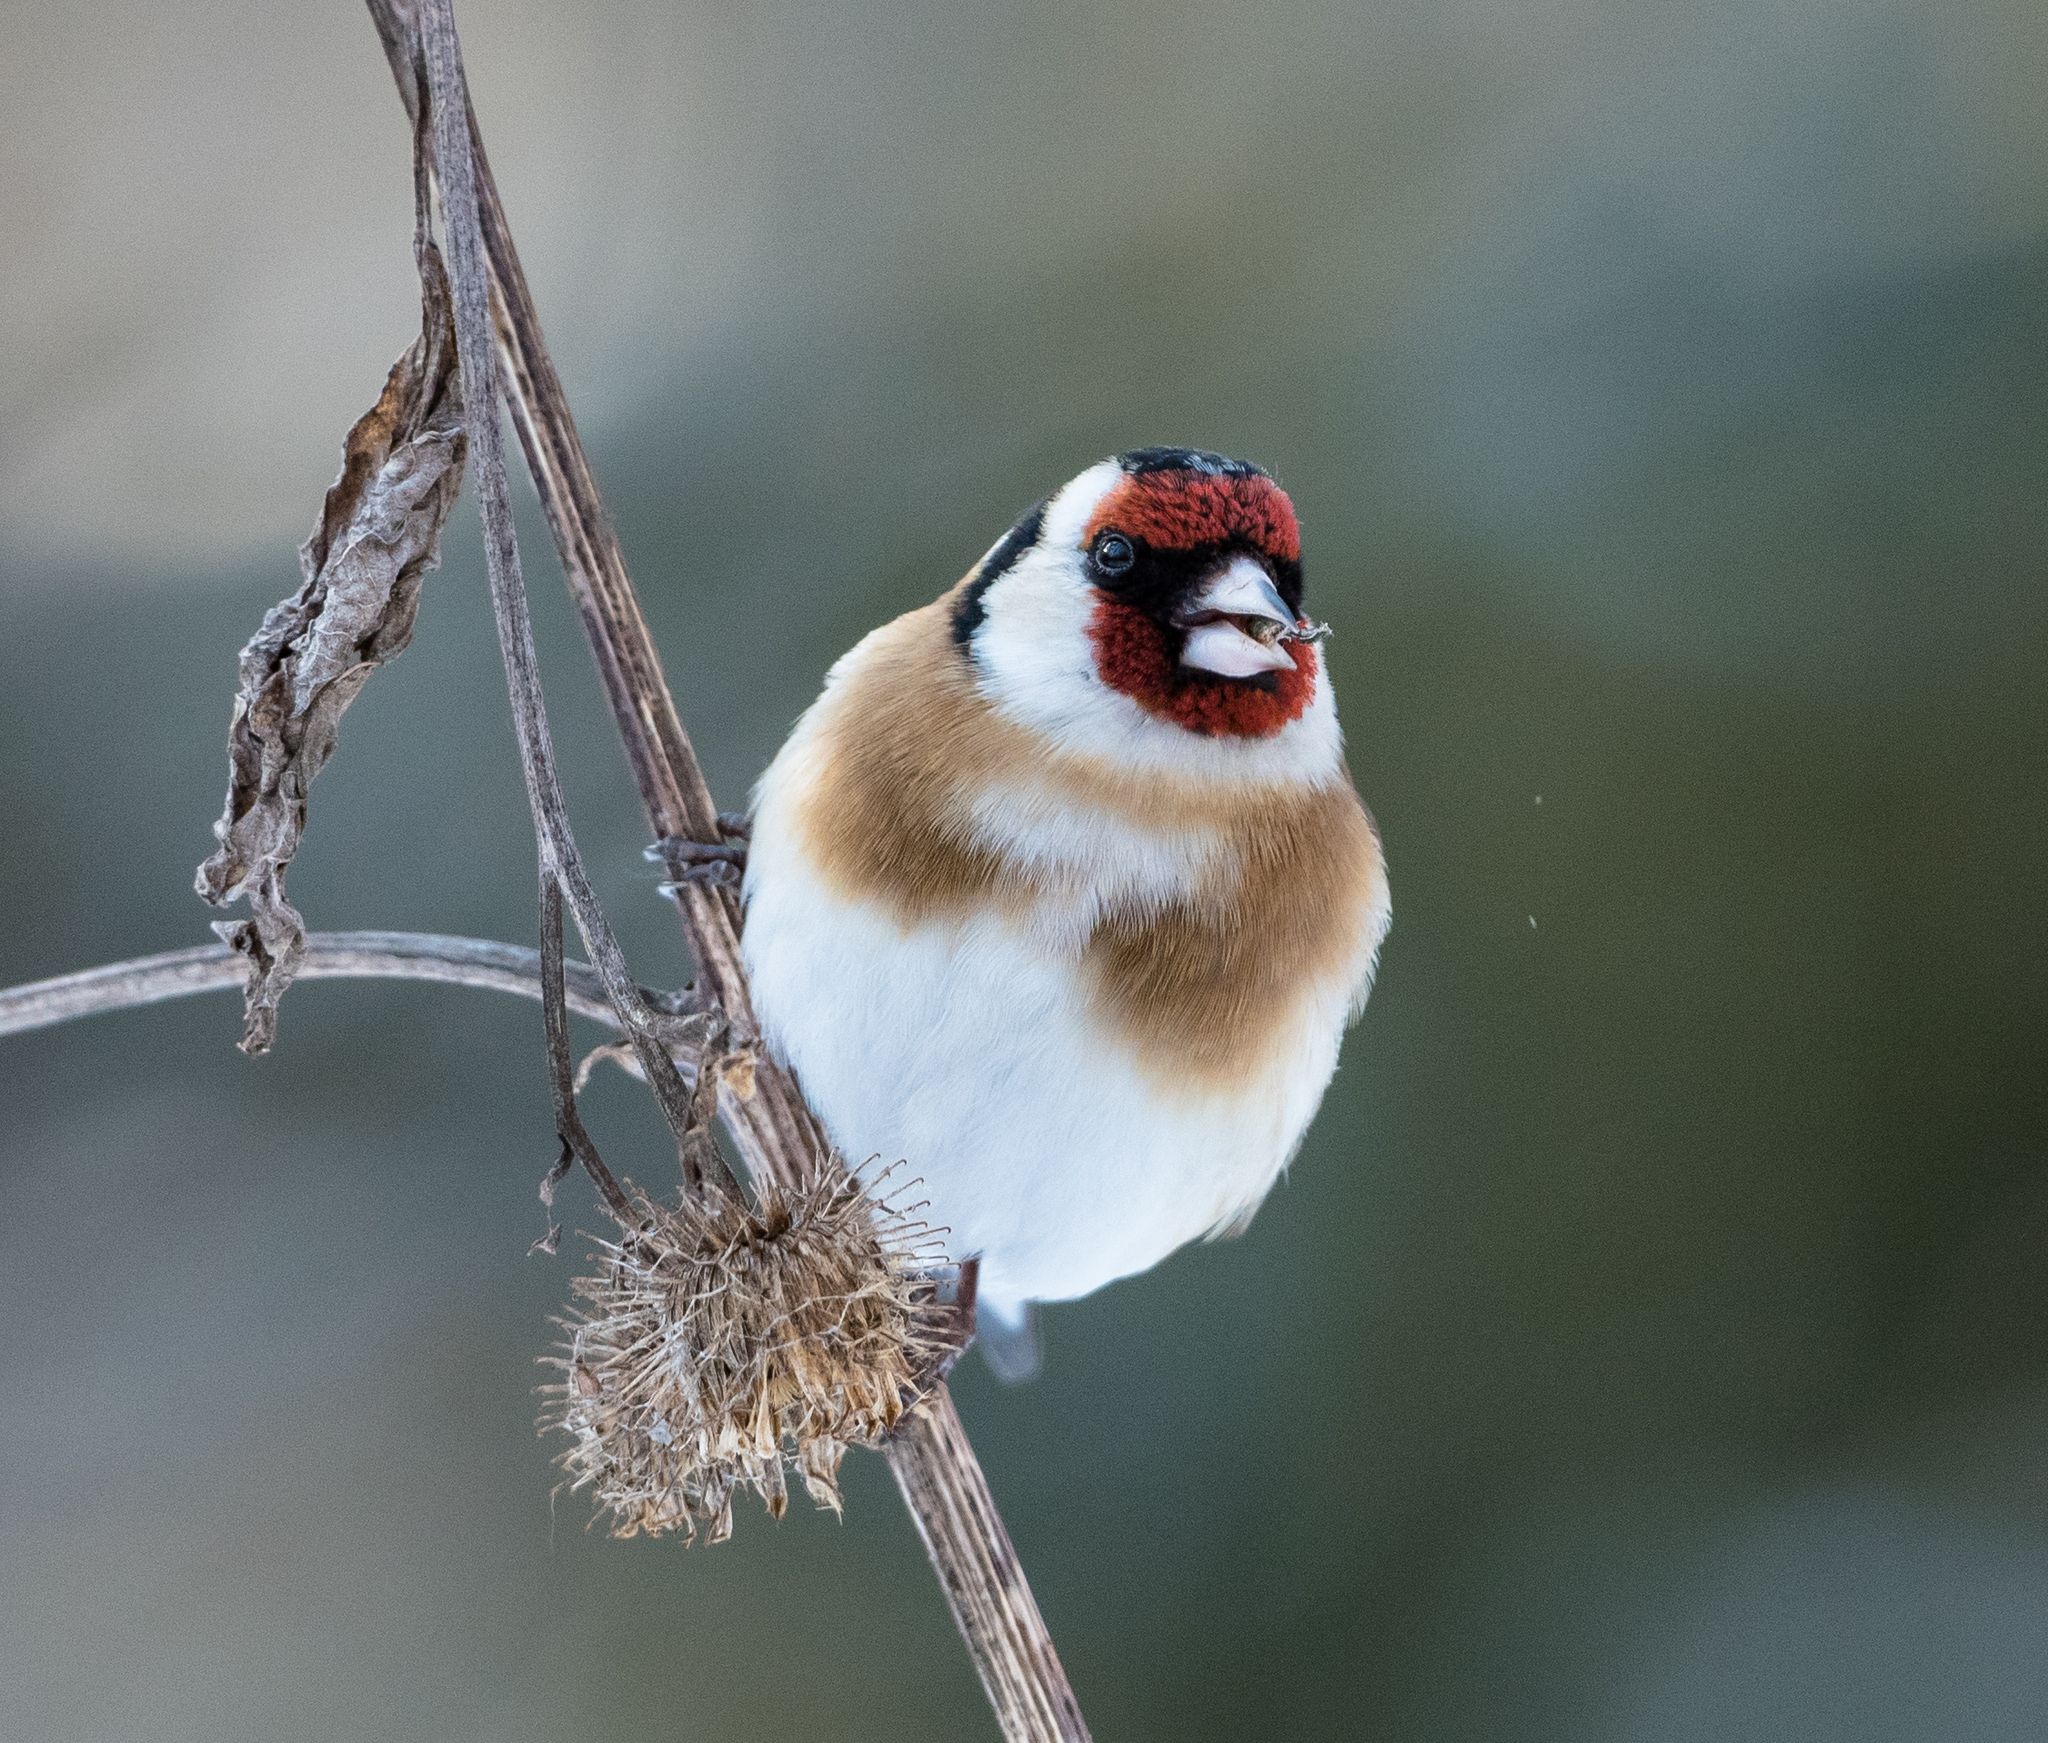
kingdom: Animalia
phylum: Chordata
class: Aves
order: Passeriformes
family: Fringillidae
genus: Carduelis
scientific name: Carduelis carduelis
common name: European goldfinch
